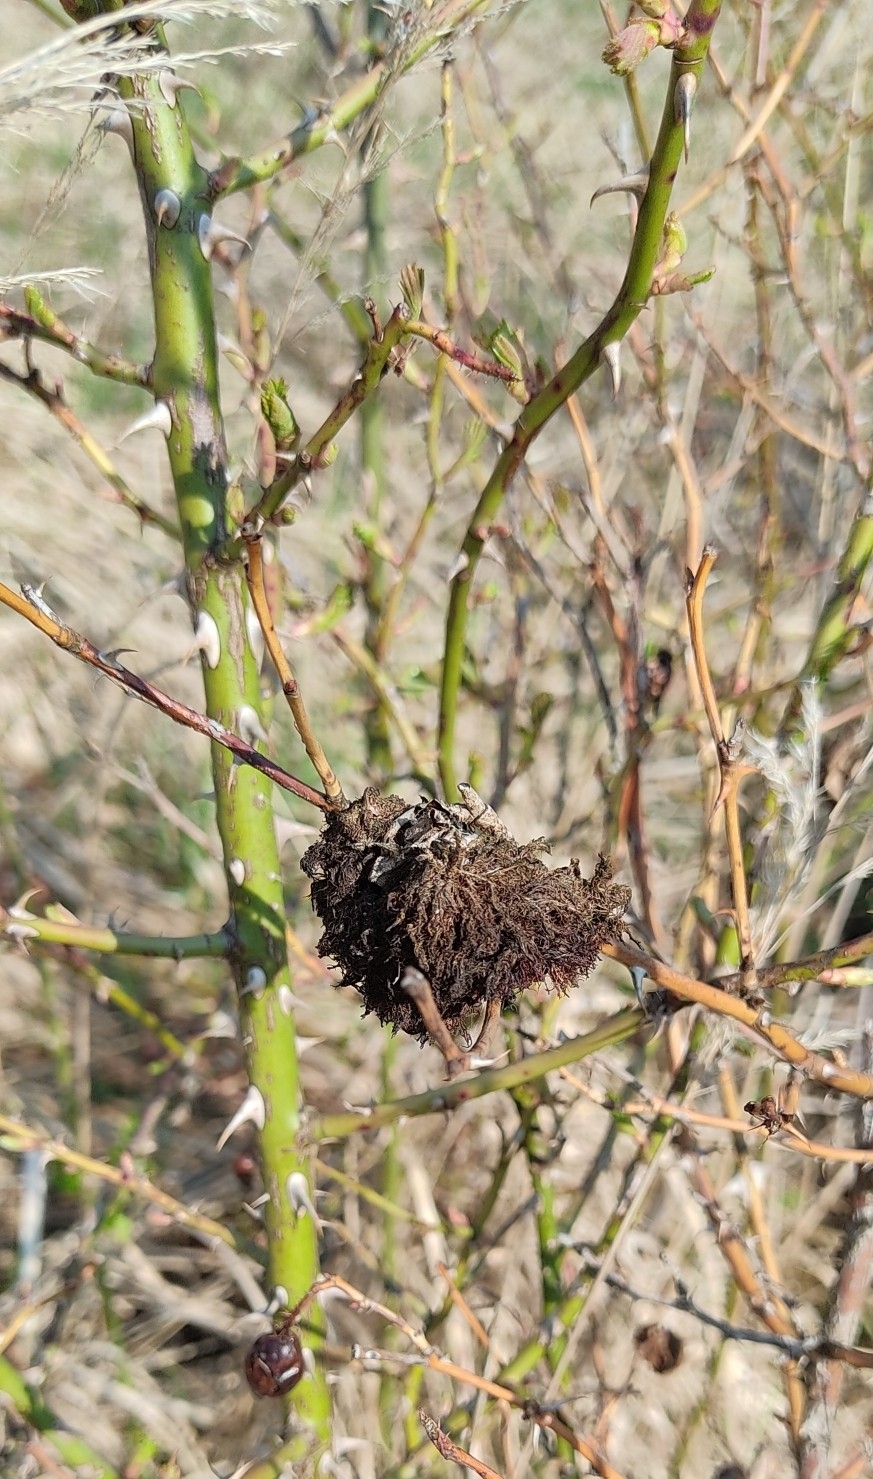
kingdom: Animalia
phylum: Arthropoda
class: Insecta
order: Hymenoptera
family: Cynipidae
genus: Diplolepis
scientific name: Diplolepis rosae
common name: Bedeguar gall
